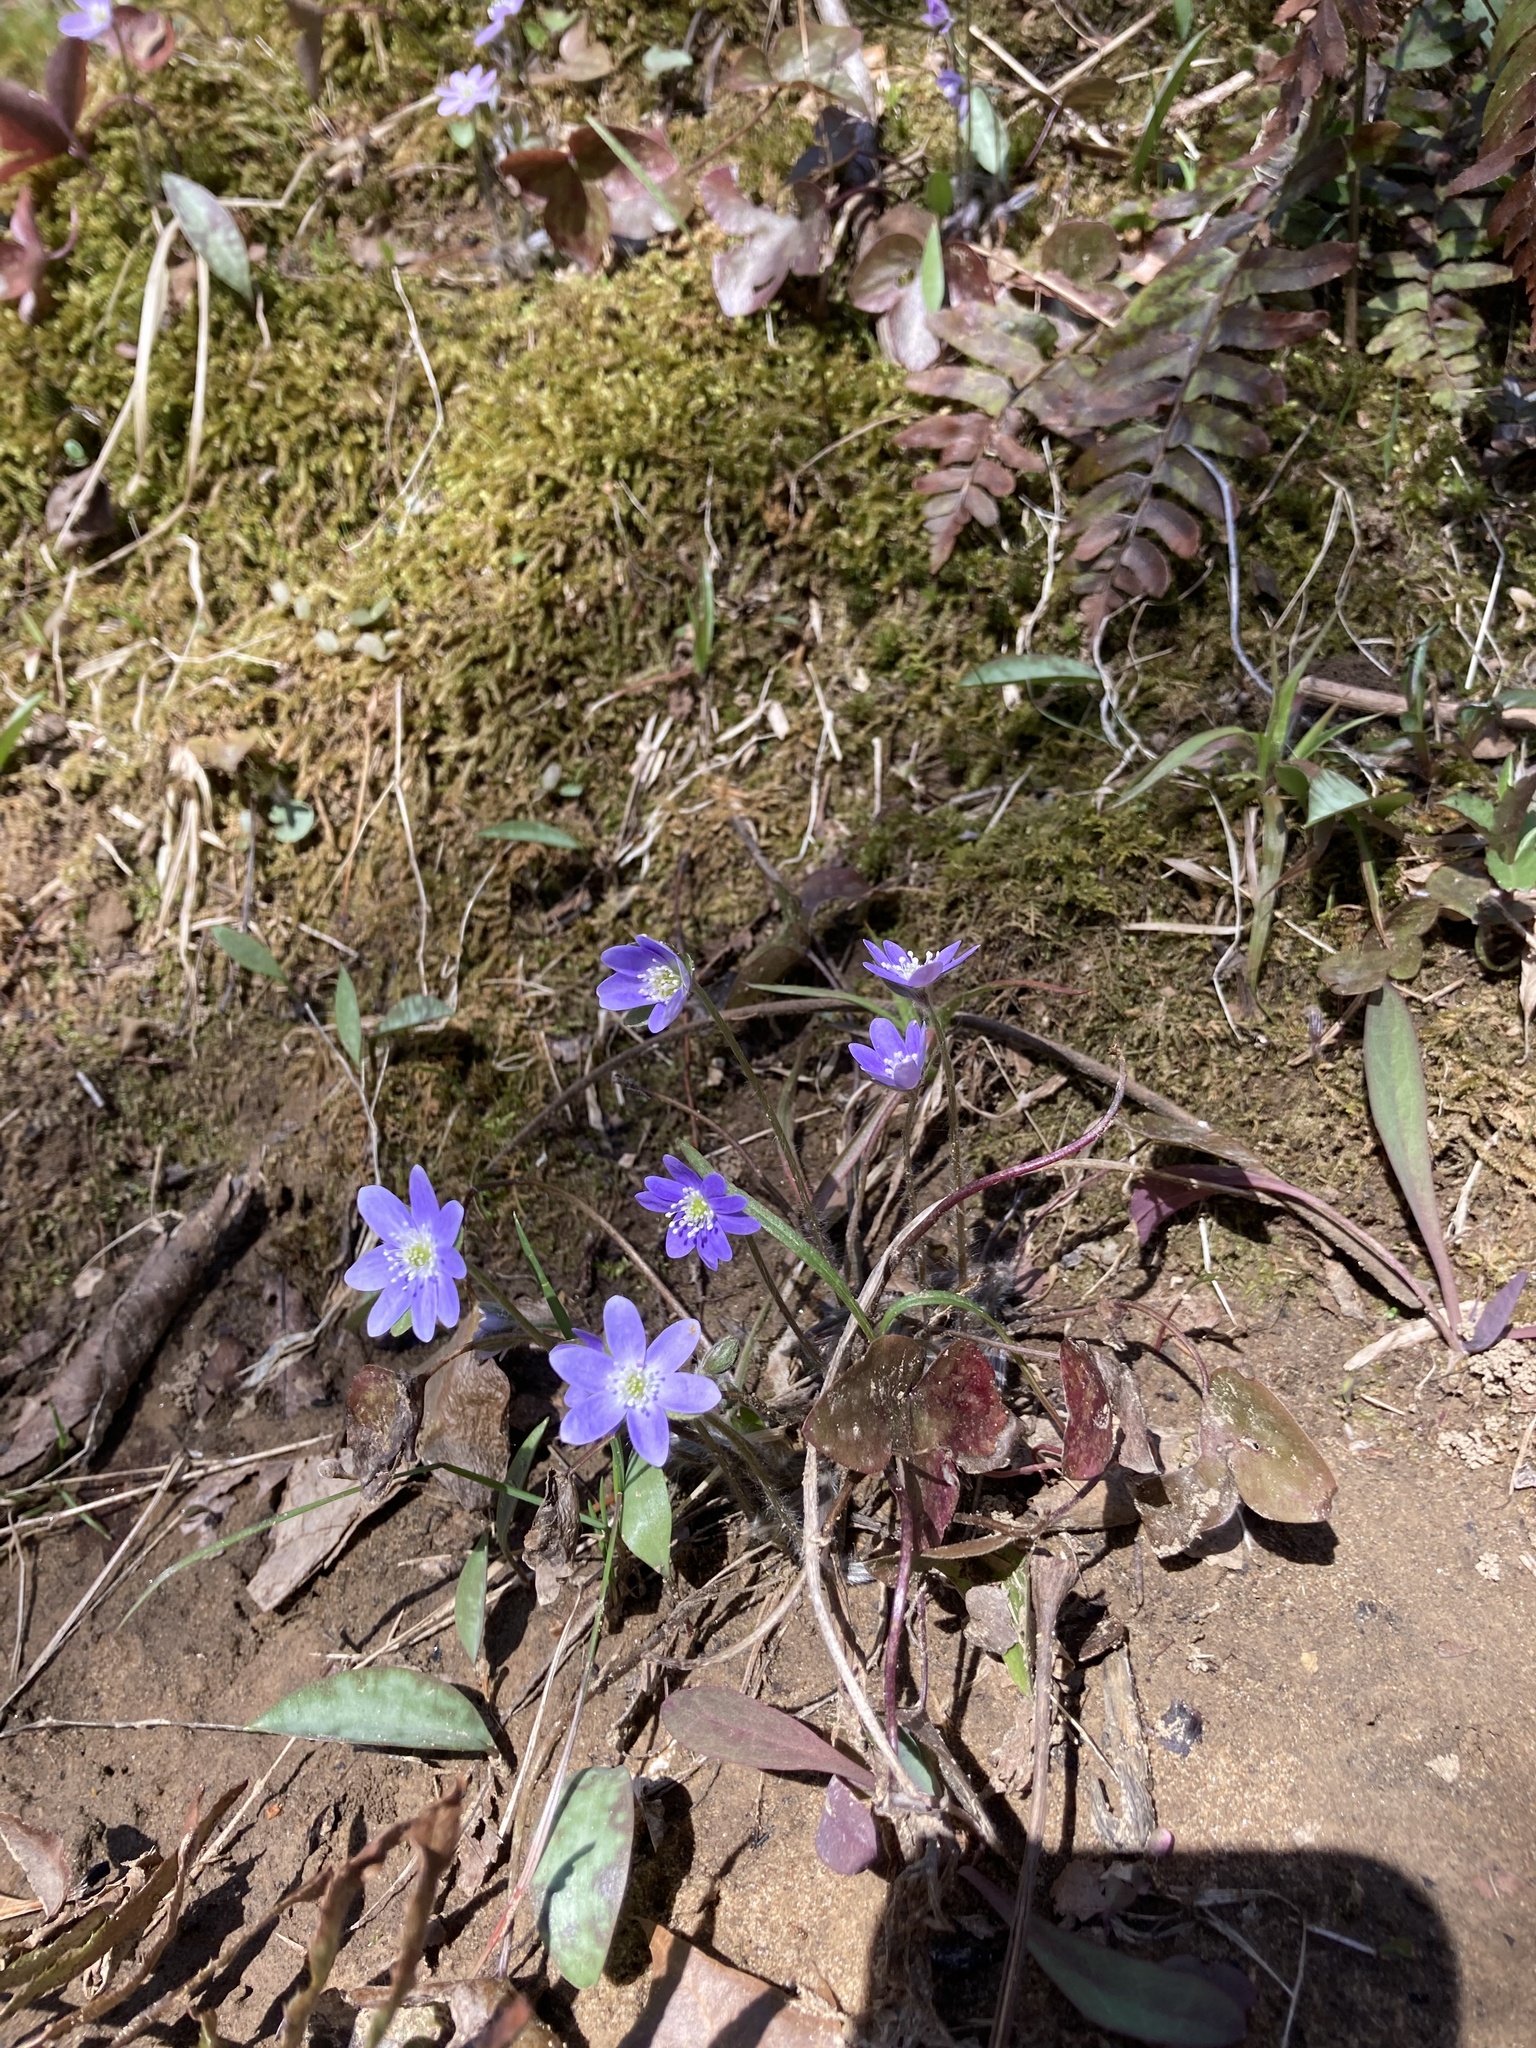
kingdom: Plantae
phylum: Tracheophyta
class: Magnoliopsida
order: Ranunculales
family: Ranunculaceae
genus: Hepatica
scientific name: Hepatica acutiloba
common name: Sharp-lobed hepatica
